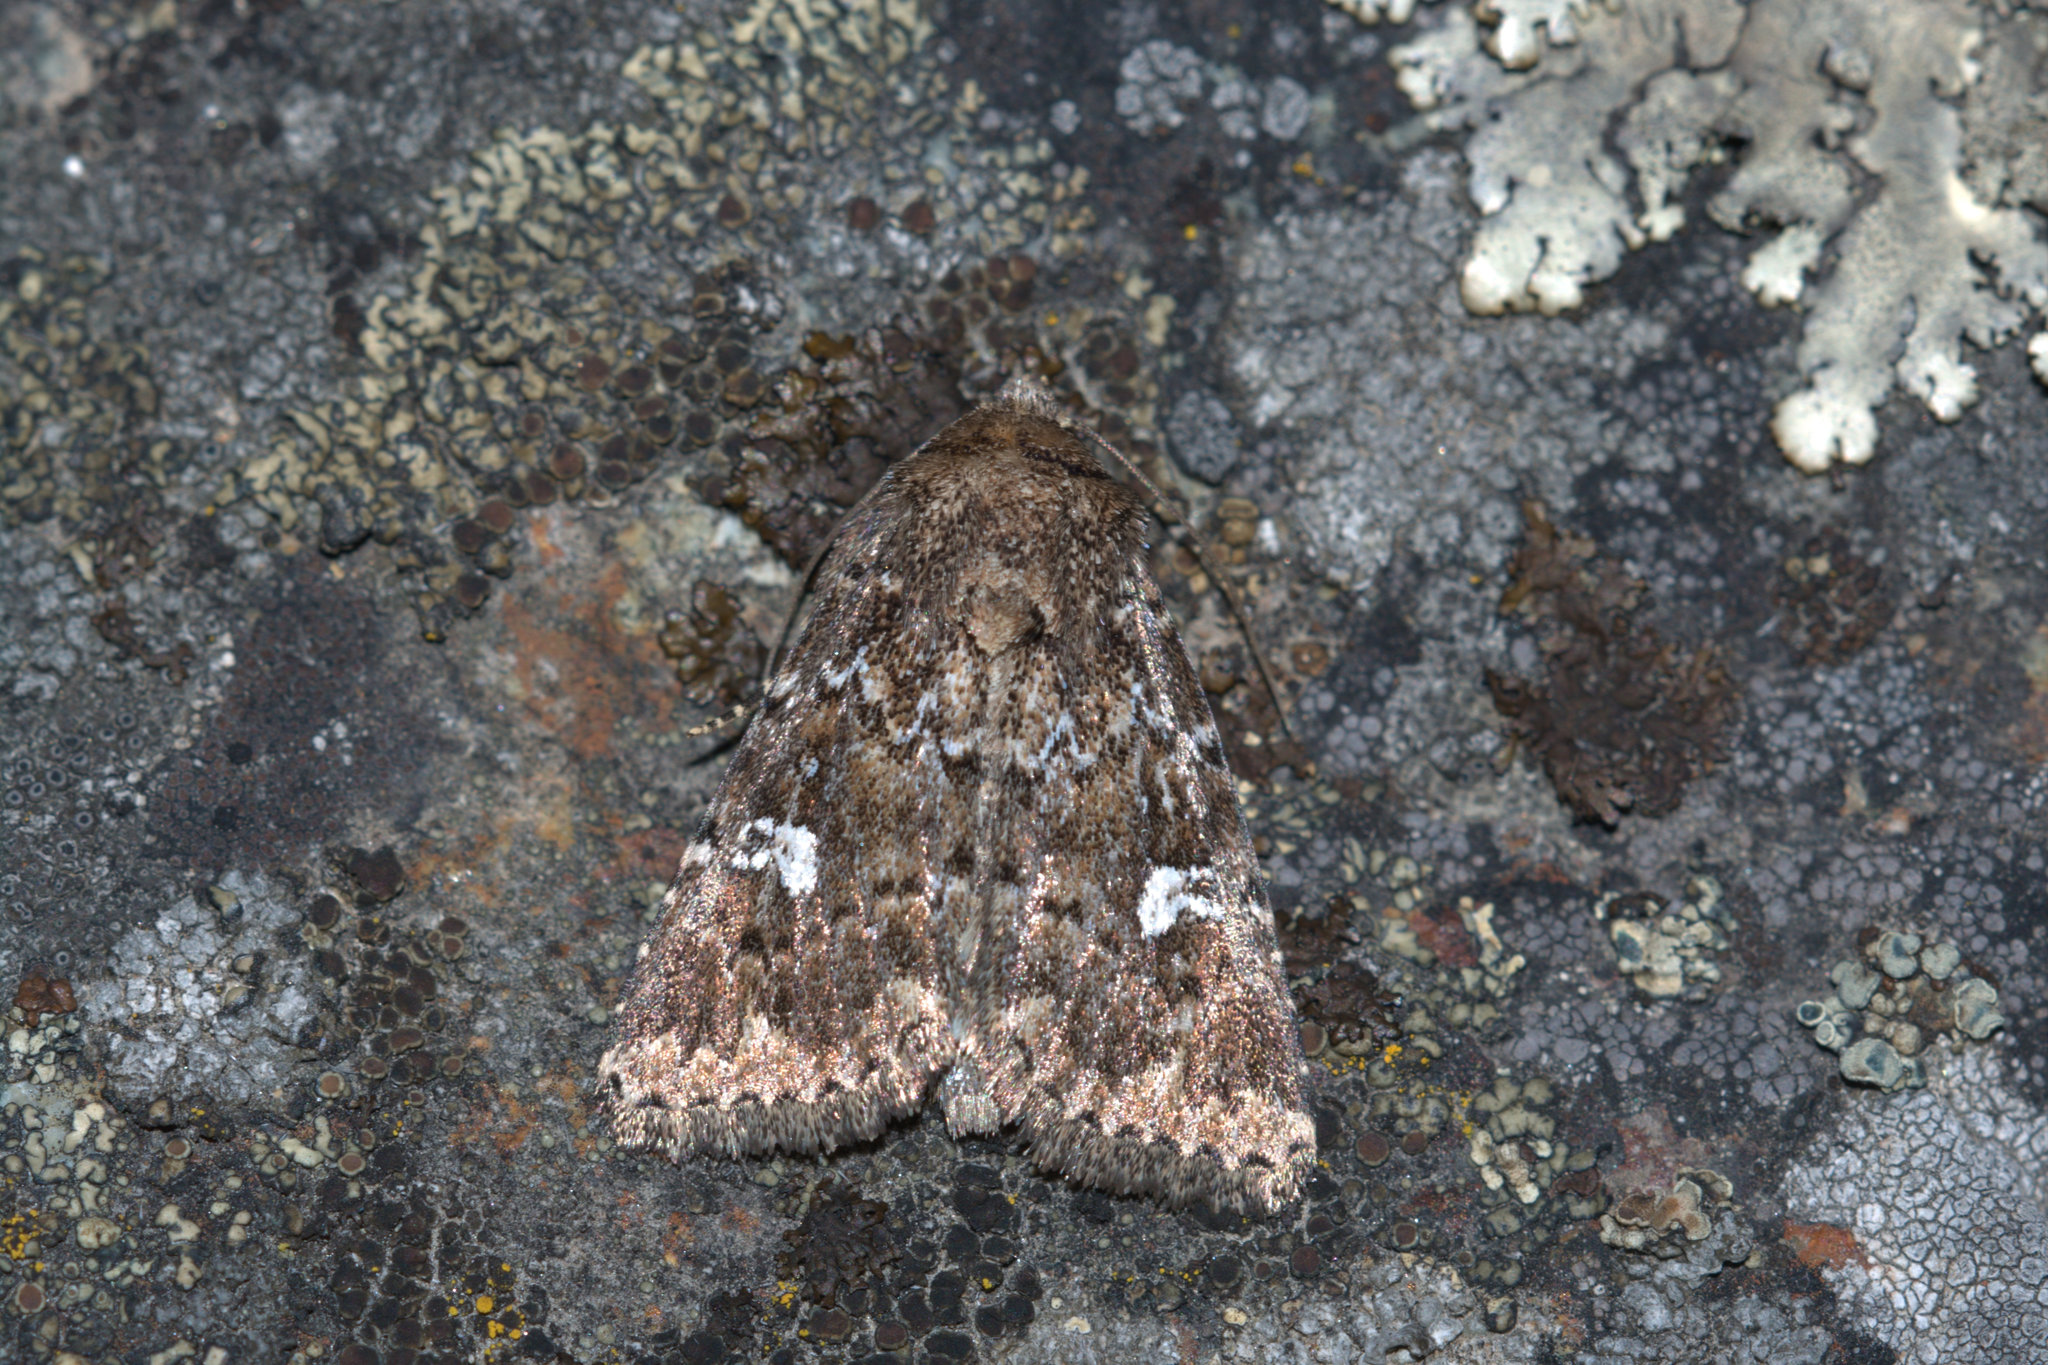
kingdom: Animalia
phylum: Arthropoda
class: Insecta
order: Lepidoptera
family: Noctuidae
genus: Properigea
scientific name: Properigea albimacula
